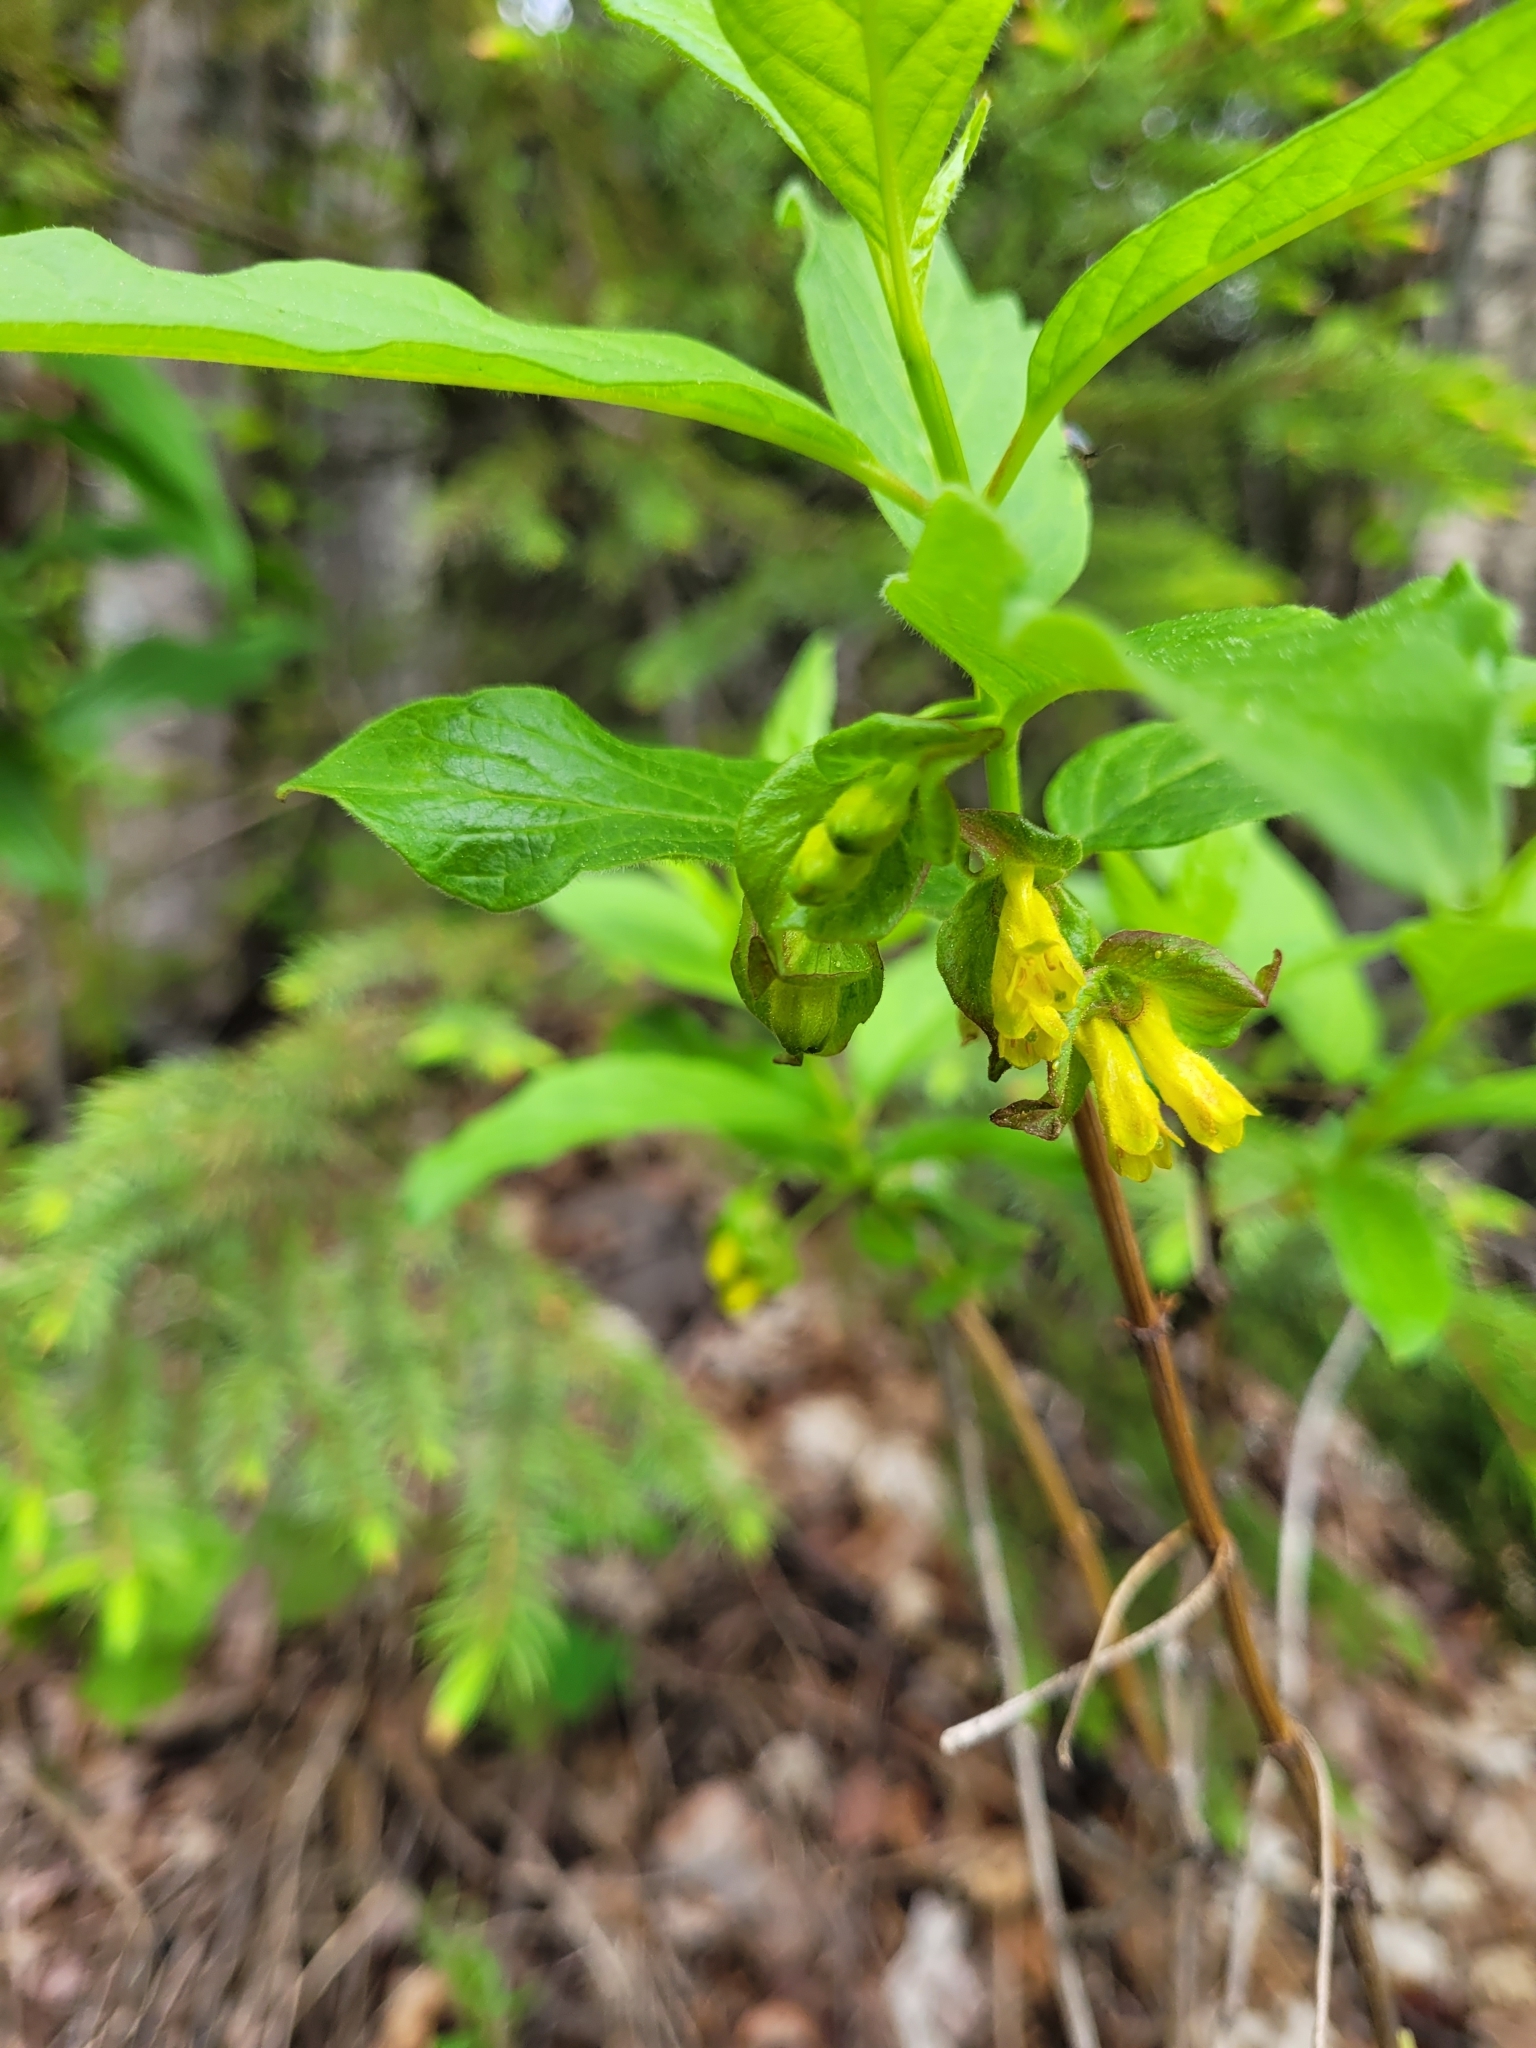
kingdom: Plantae
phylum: Tracheophyta
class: Magnoliopsida
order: Dipsacales
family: Caprifoliaceae
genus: Lonicera
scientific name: Lonicera involucrata
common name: Californian honeysuckle
